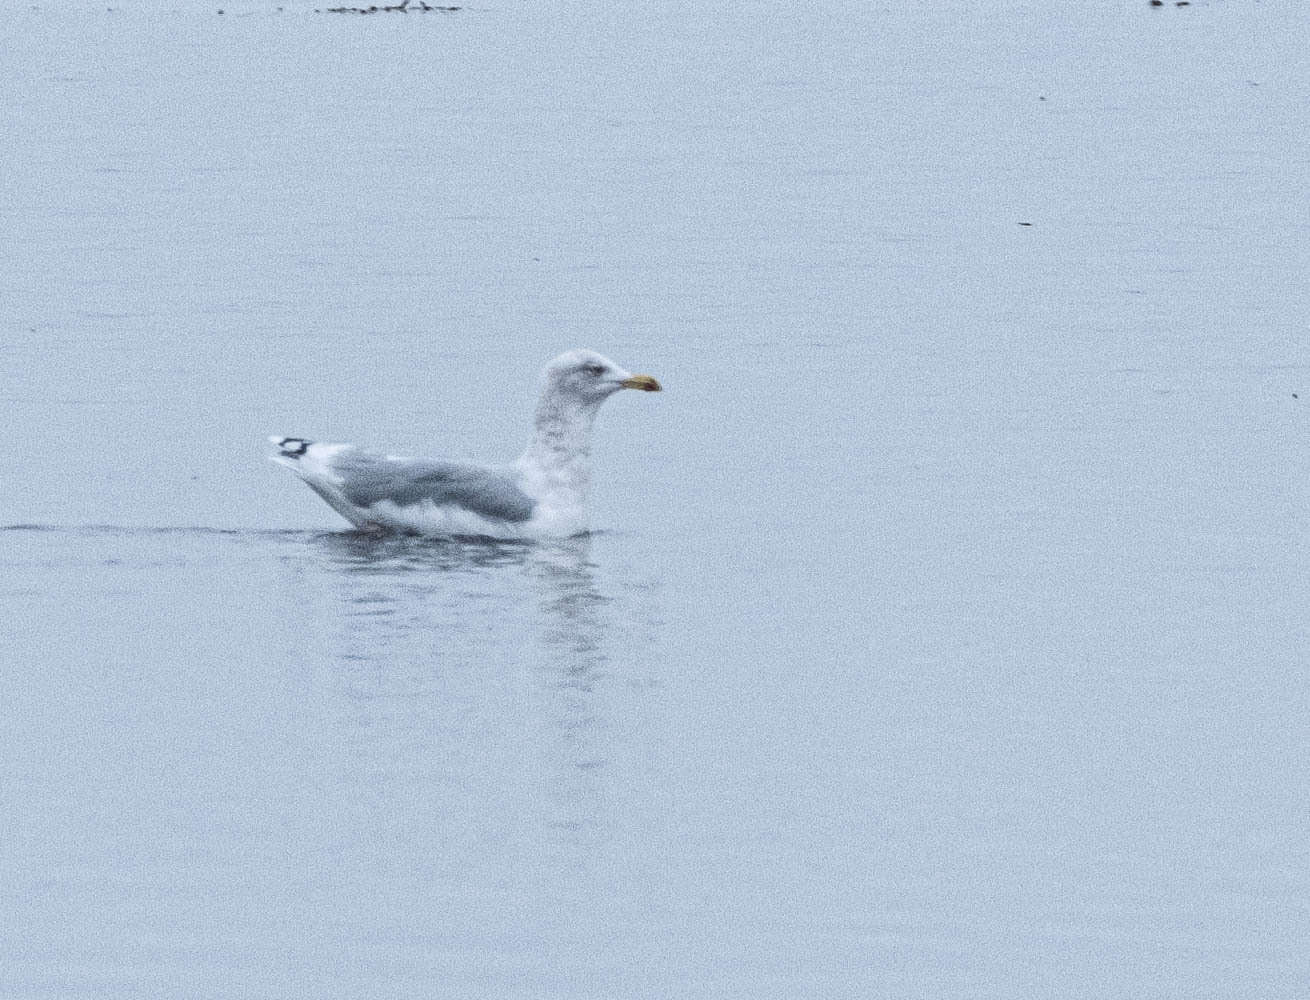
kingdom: Animalia
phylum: Chordata
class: Aves
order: Charadriiformes
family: Laridae
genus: Larus
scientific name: Larus argentatus
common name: Herring gull
